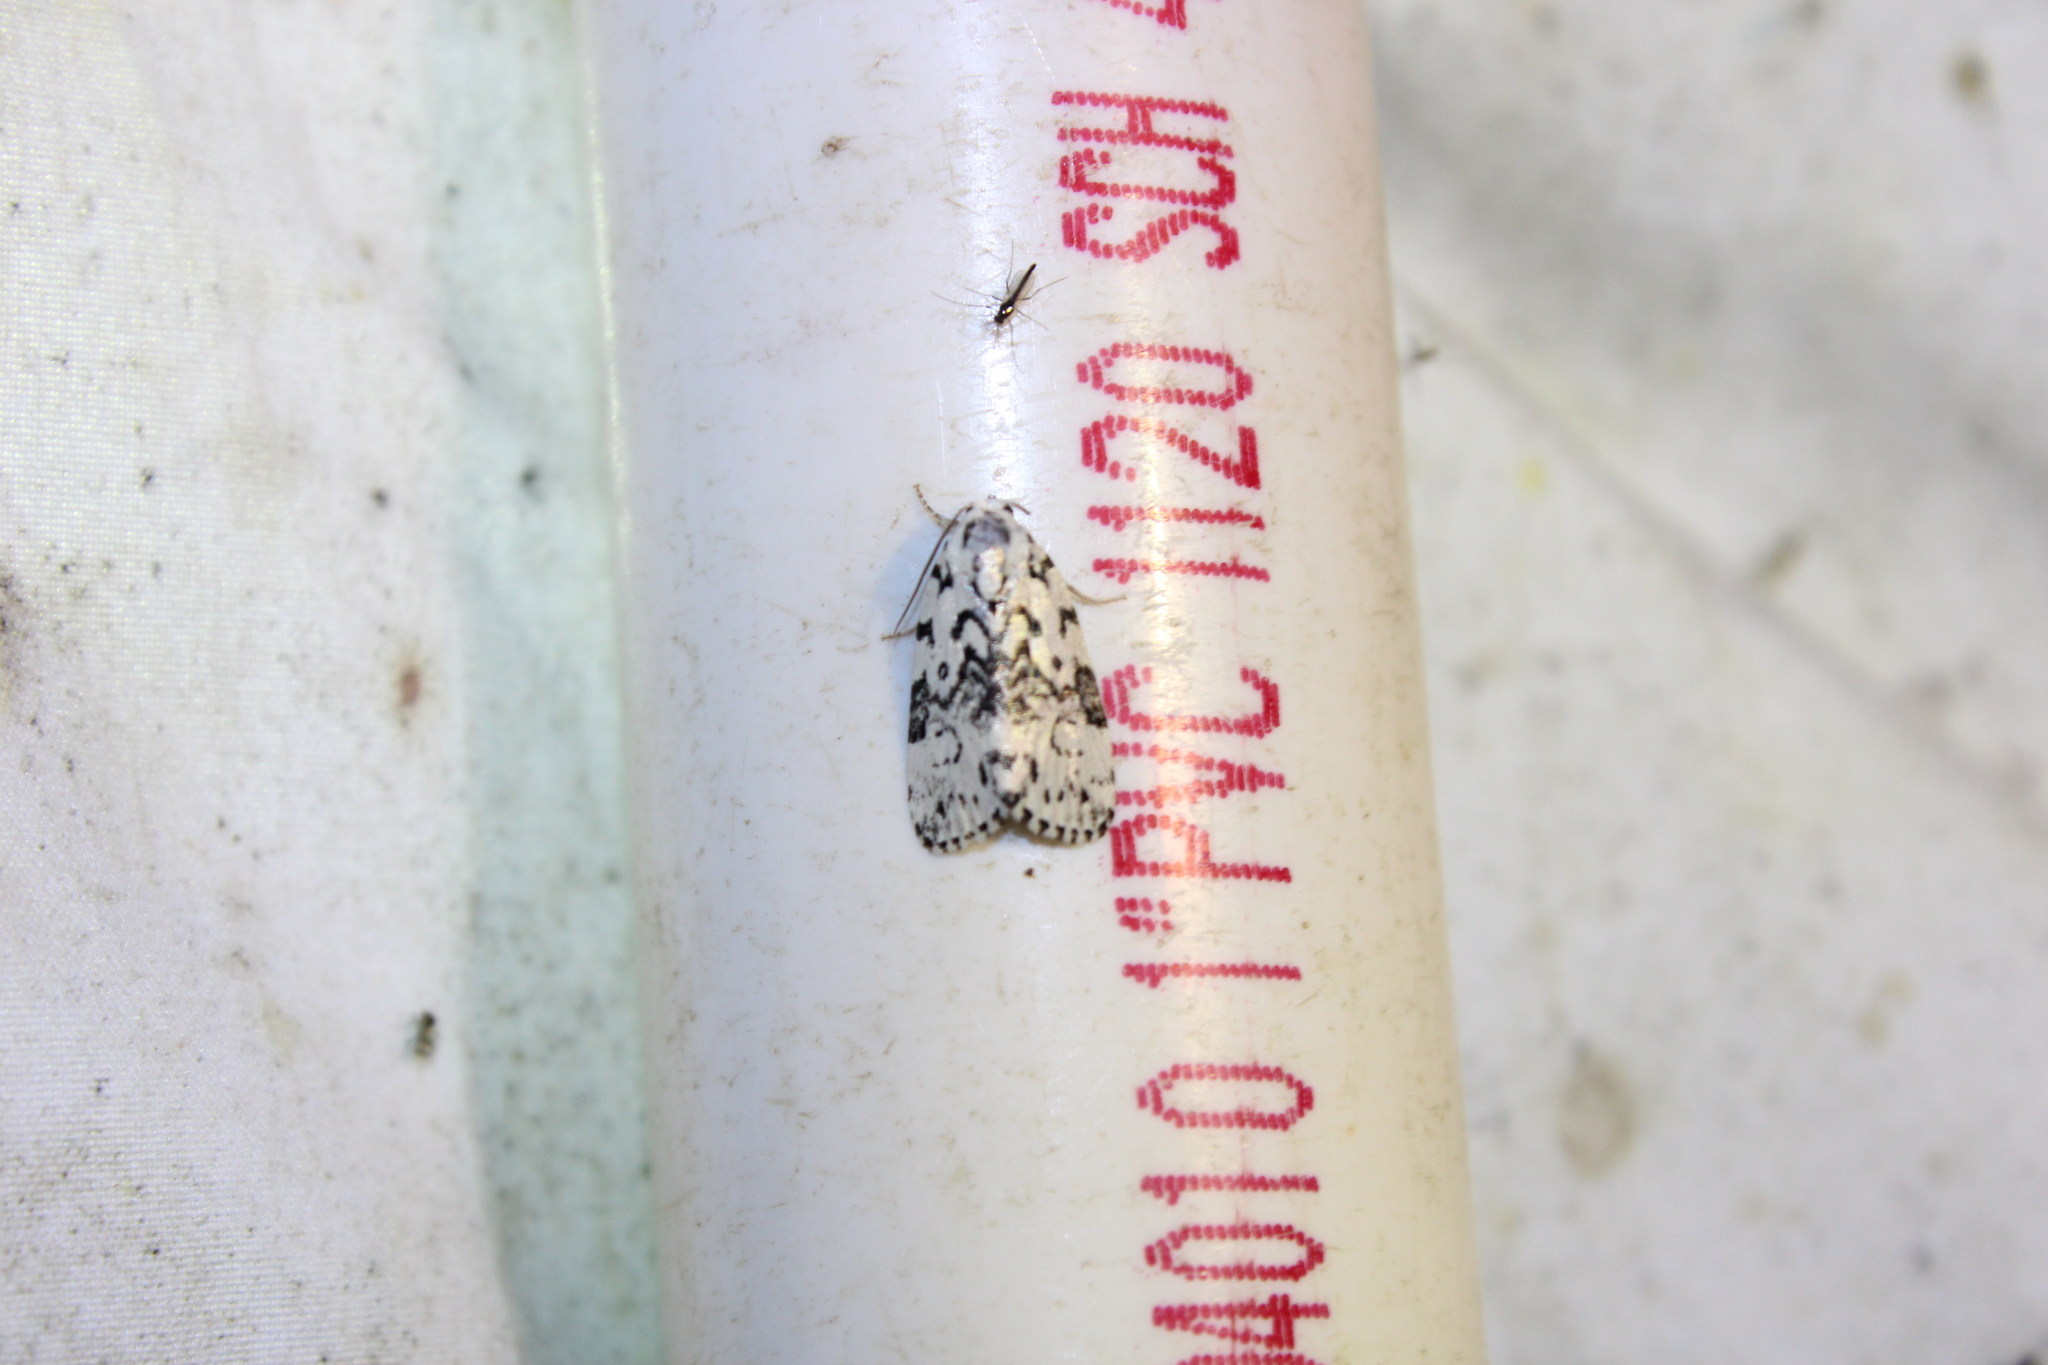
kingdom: Animalia
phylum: Arthropoda
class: Insecta
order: Lepidoptera
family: Noctuidae
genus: Polygrammate
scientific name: Polygrammate hebraeicum
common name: Hebrew moth
